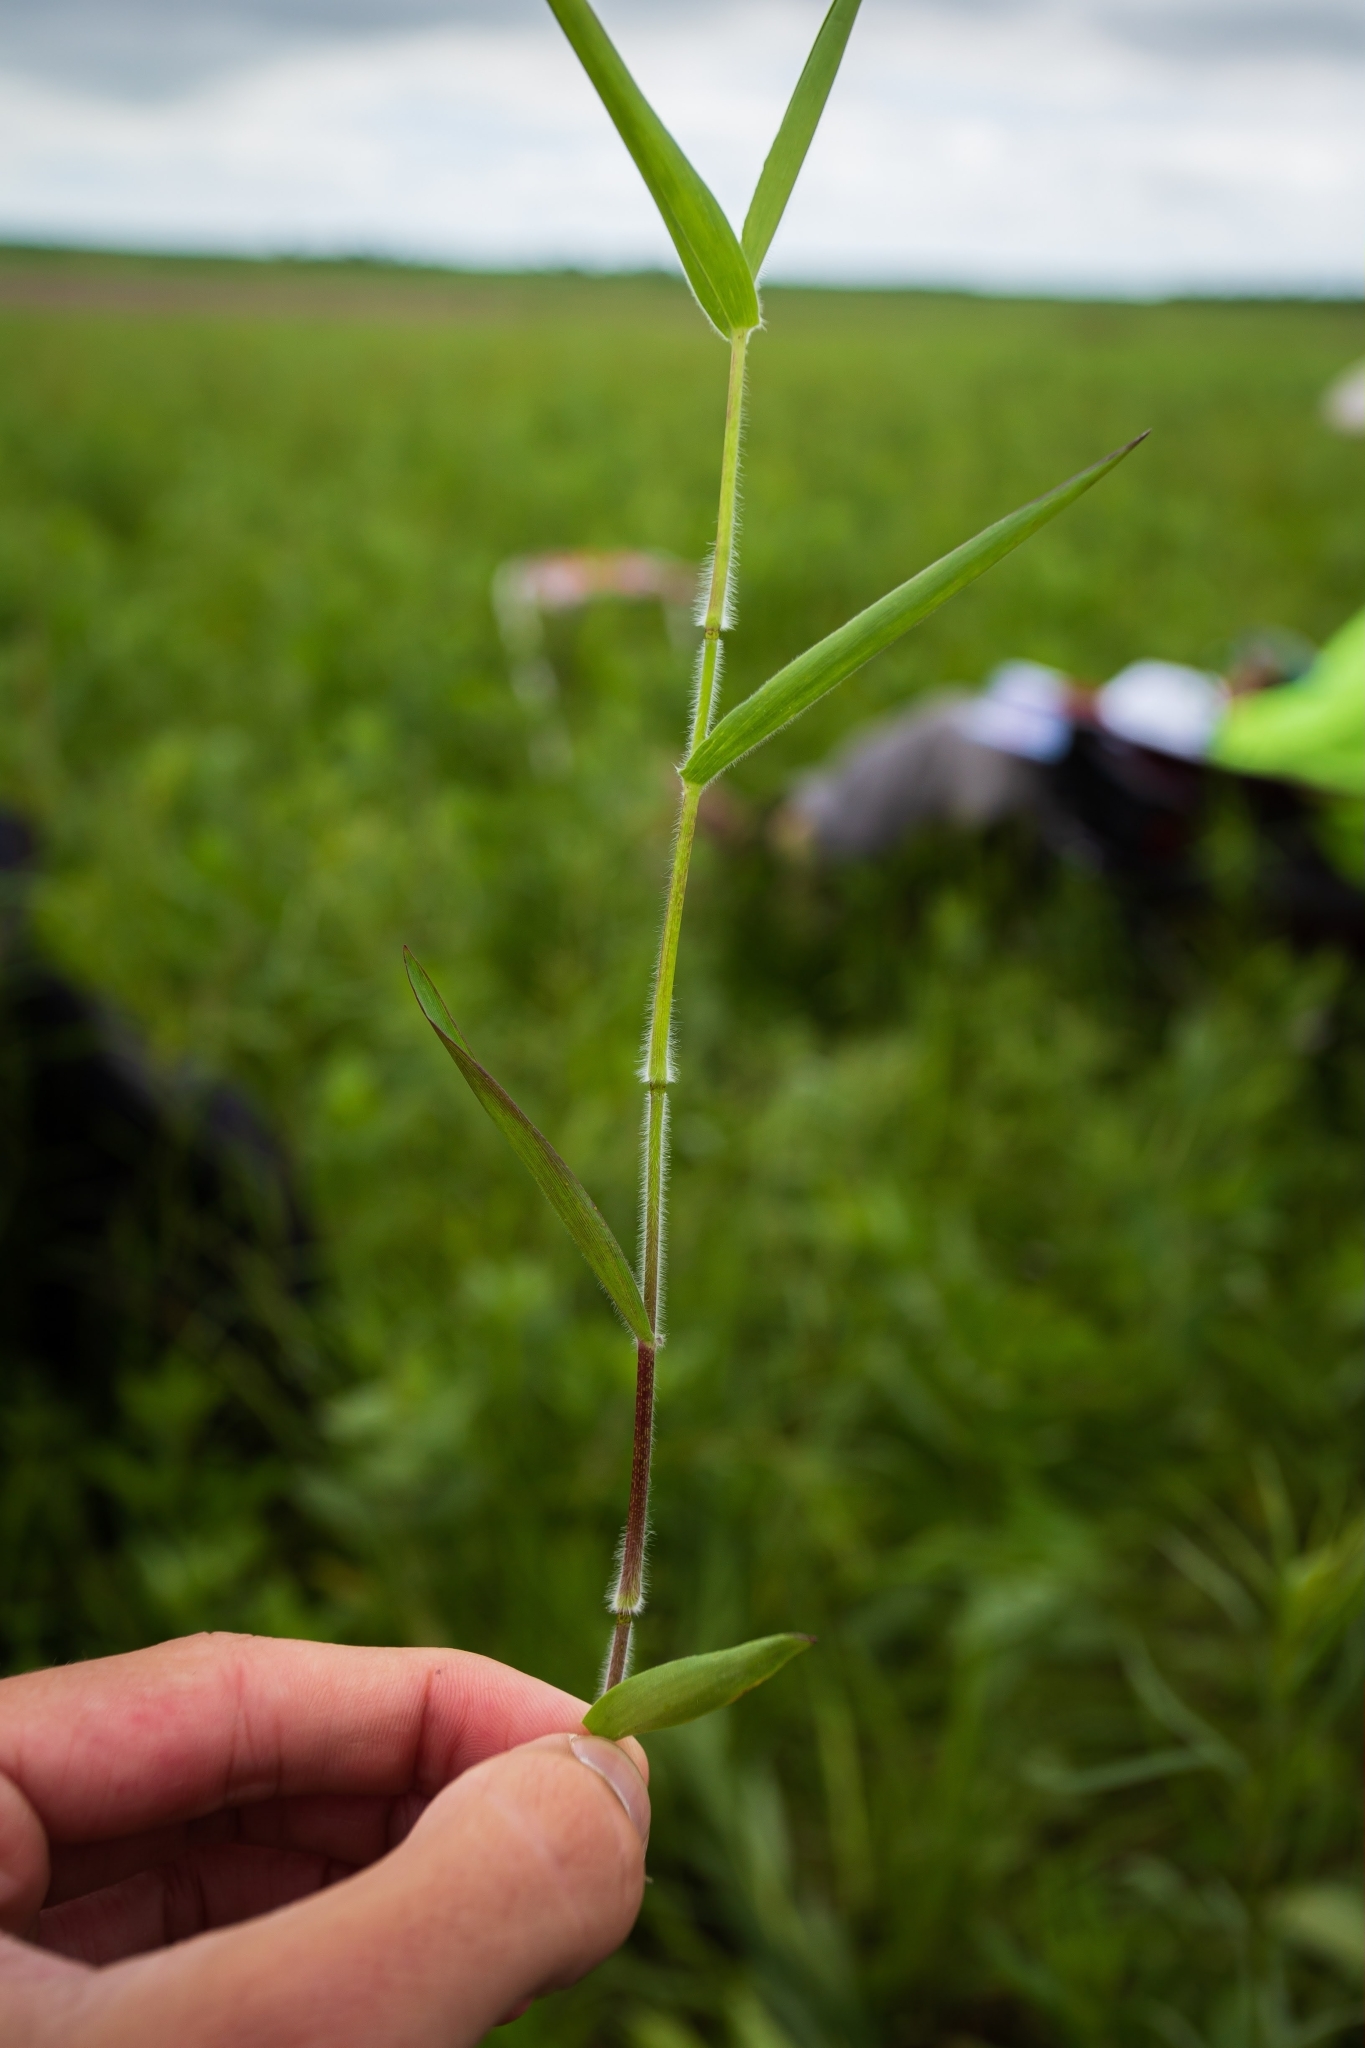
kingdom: Plantae
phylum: Tracheophyta
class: Liliopsida
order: Poales
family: Poaceae
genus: Dichanthelium
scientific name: Dichanthelium scoparium
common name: Velvety panic grass
